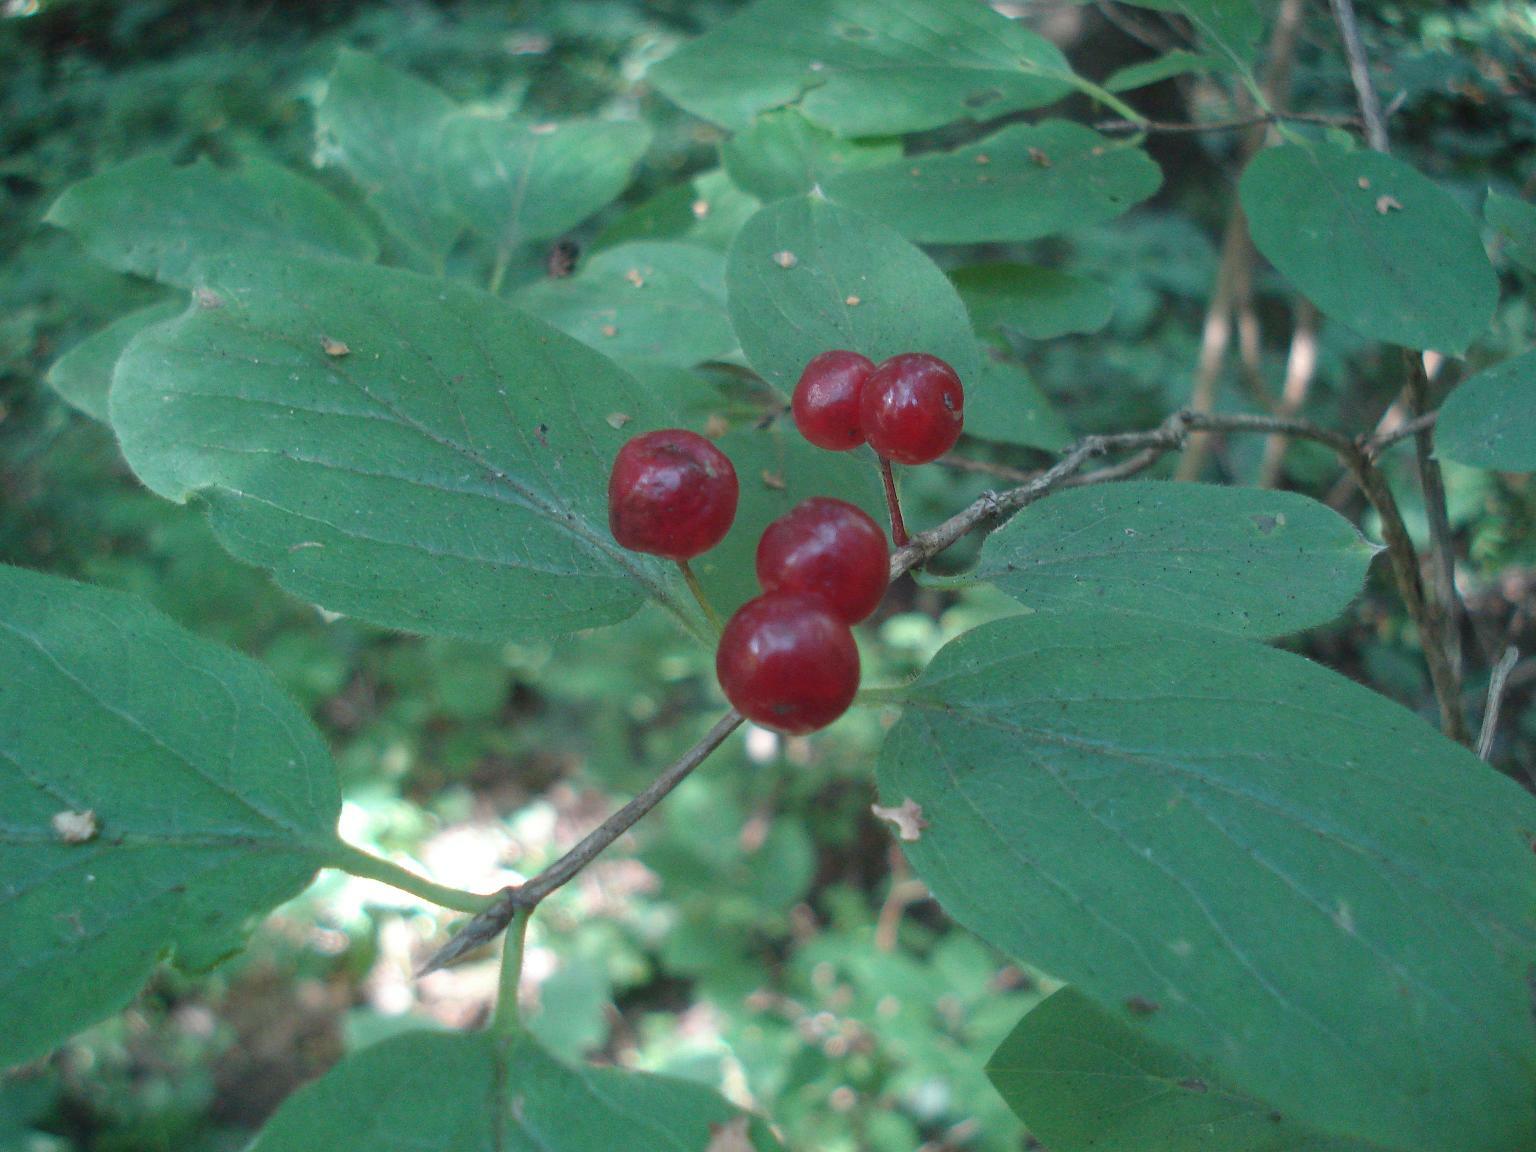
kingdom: Plantae
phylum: Tracheophyta
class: Magnoliopsida
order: Dipsacales
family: Caprifoliaceae
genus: Lonicera
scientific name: Lonicera xylosteum
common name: Fly honeysuckle
